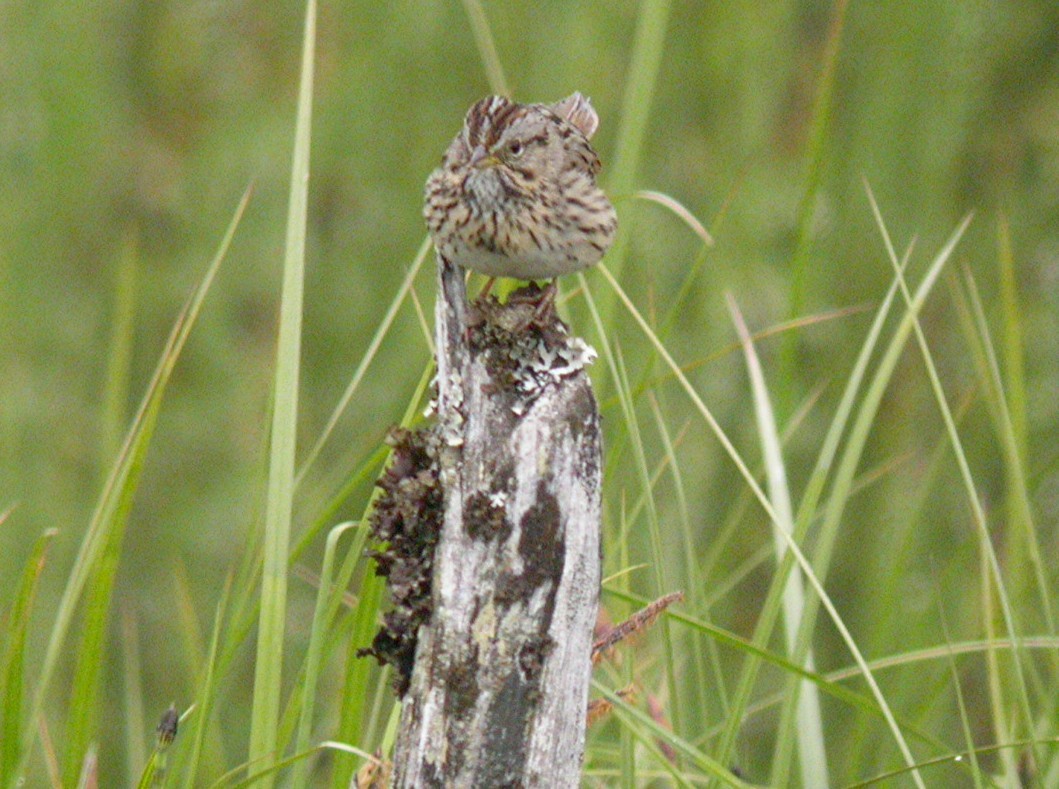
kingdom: Animalia
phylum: Chordata
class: Aves
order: Passeriformes
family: Passerellidae
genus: Melospiza
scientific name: Melospiza lincolnii
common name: Lincoln's sparrow
